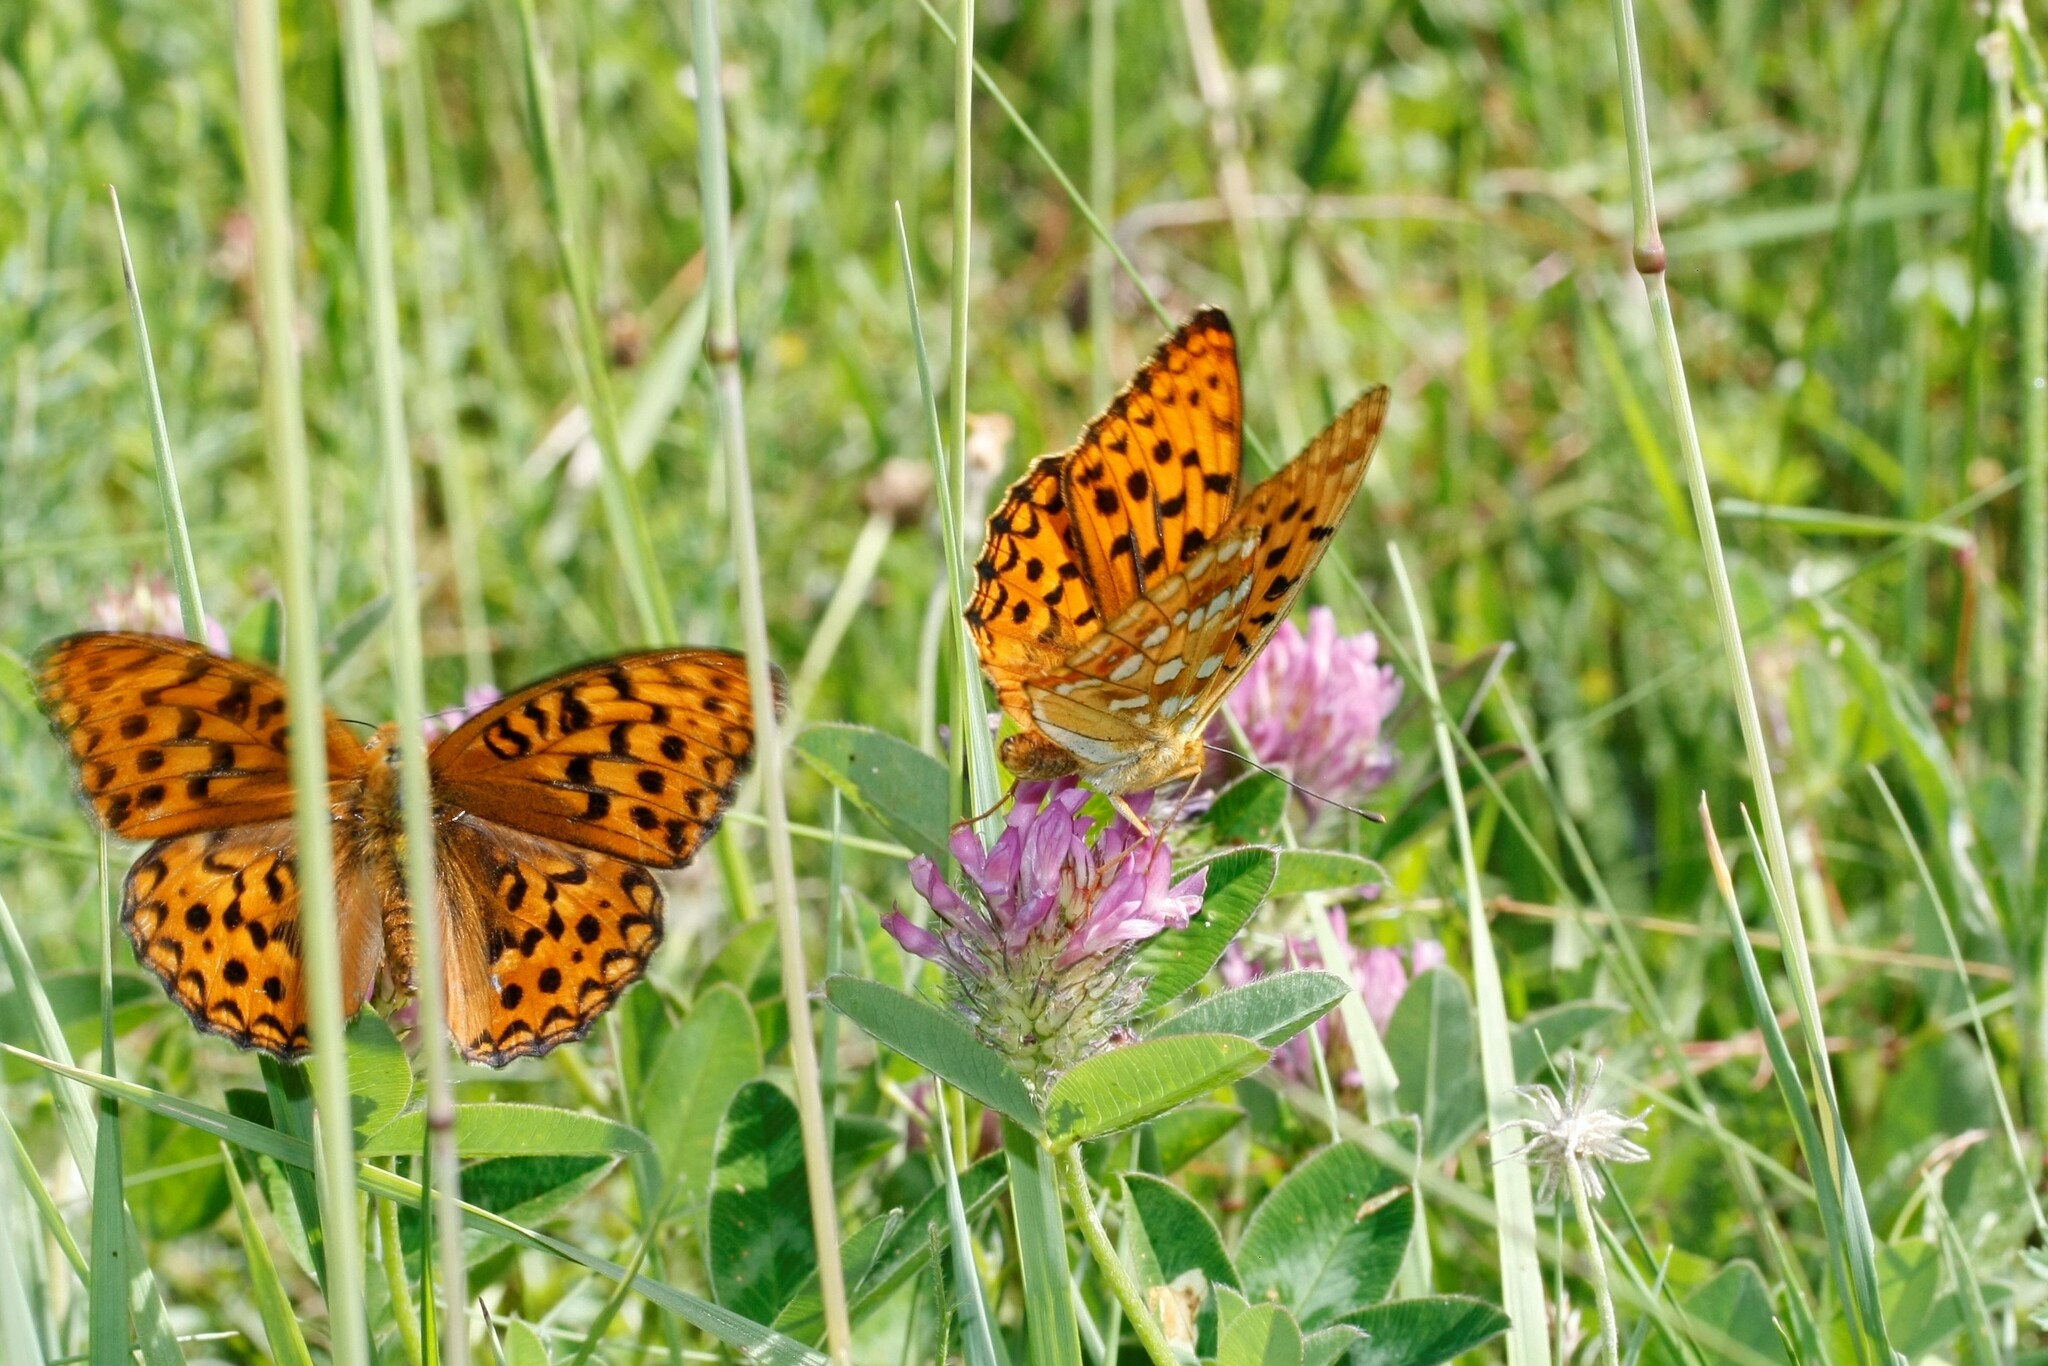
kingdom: Animalia
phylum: Arthropoda
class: Insecta
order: Lepidoptera
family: Nymphalidae
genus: Fabriciana
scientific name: Fabriciana adippe
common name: High brown fritillary
